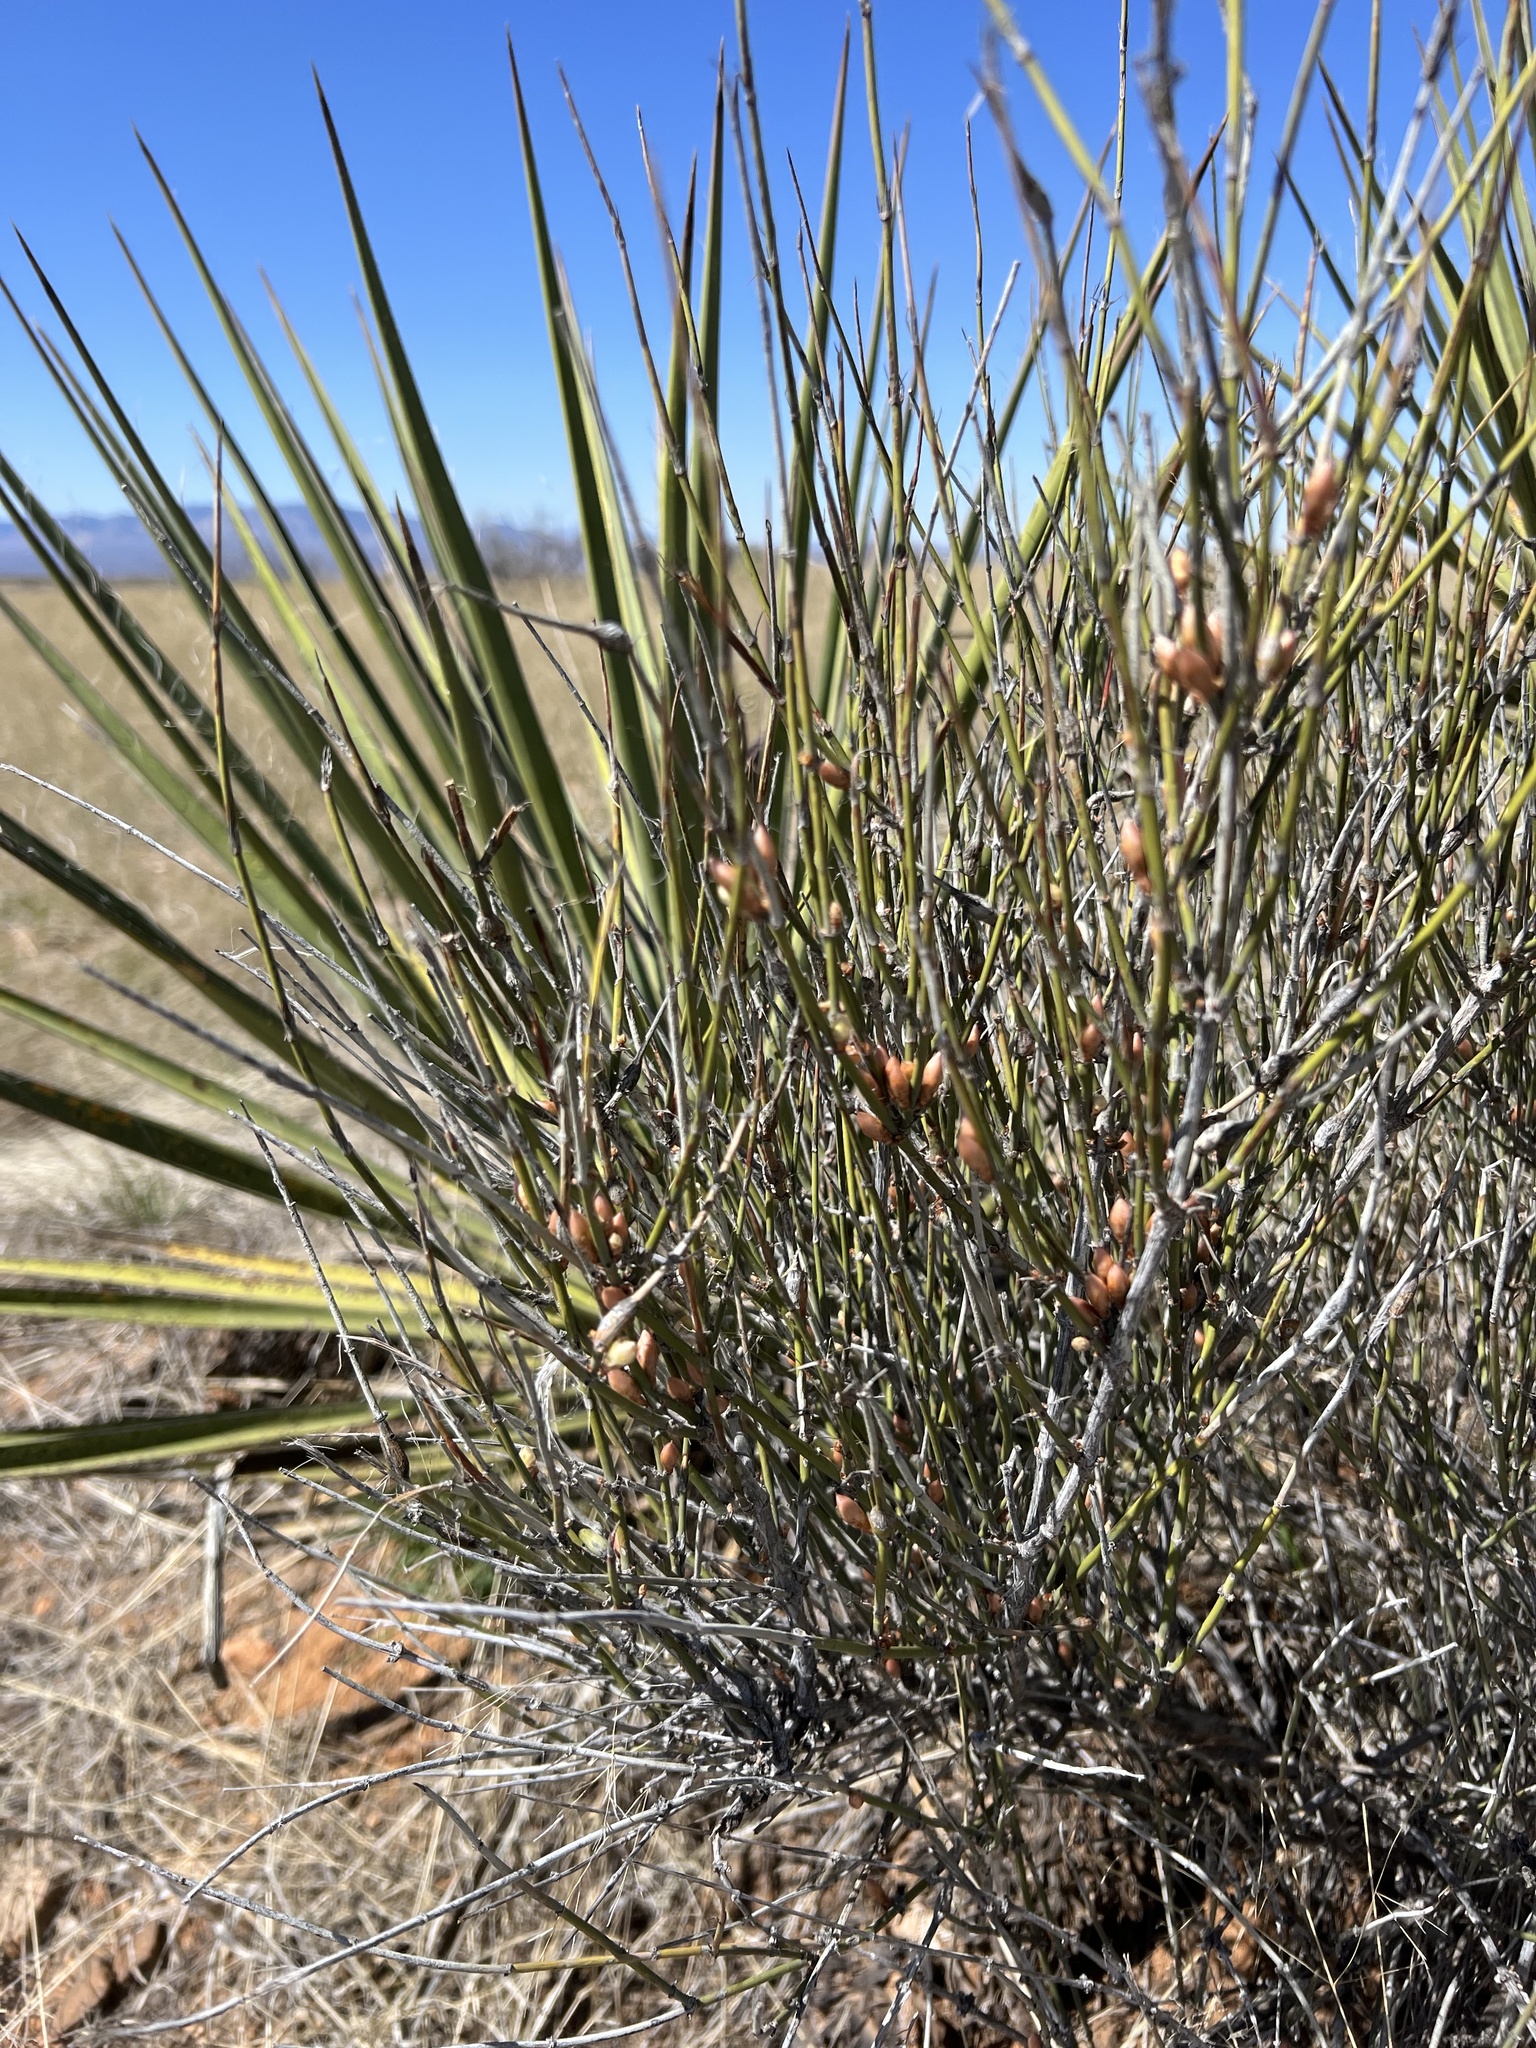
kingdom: Plantae
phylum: Tracheophyta
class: Gnetopsida
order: Ephedrales
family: Ephedraceae
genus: Ephedra
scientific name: Ephedra trifurca
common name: Mexican-tea
